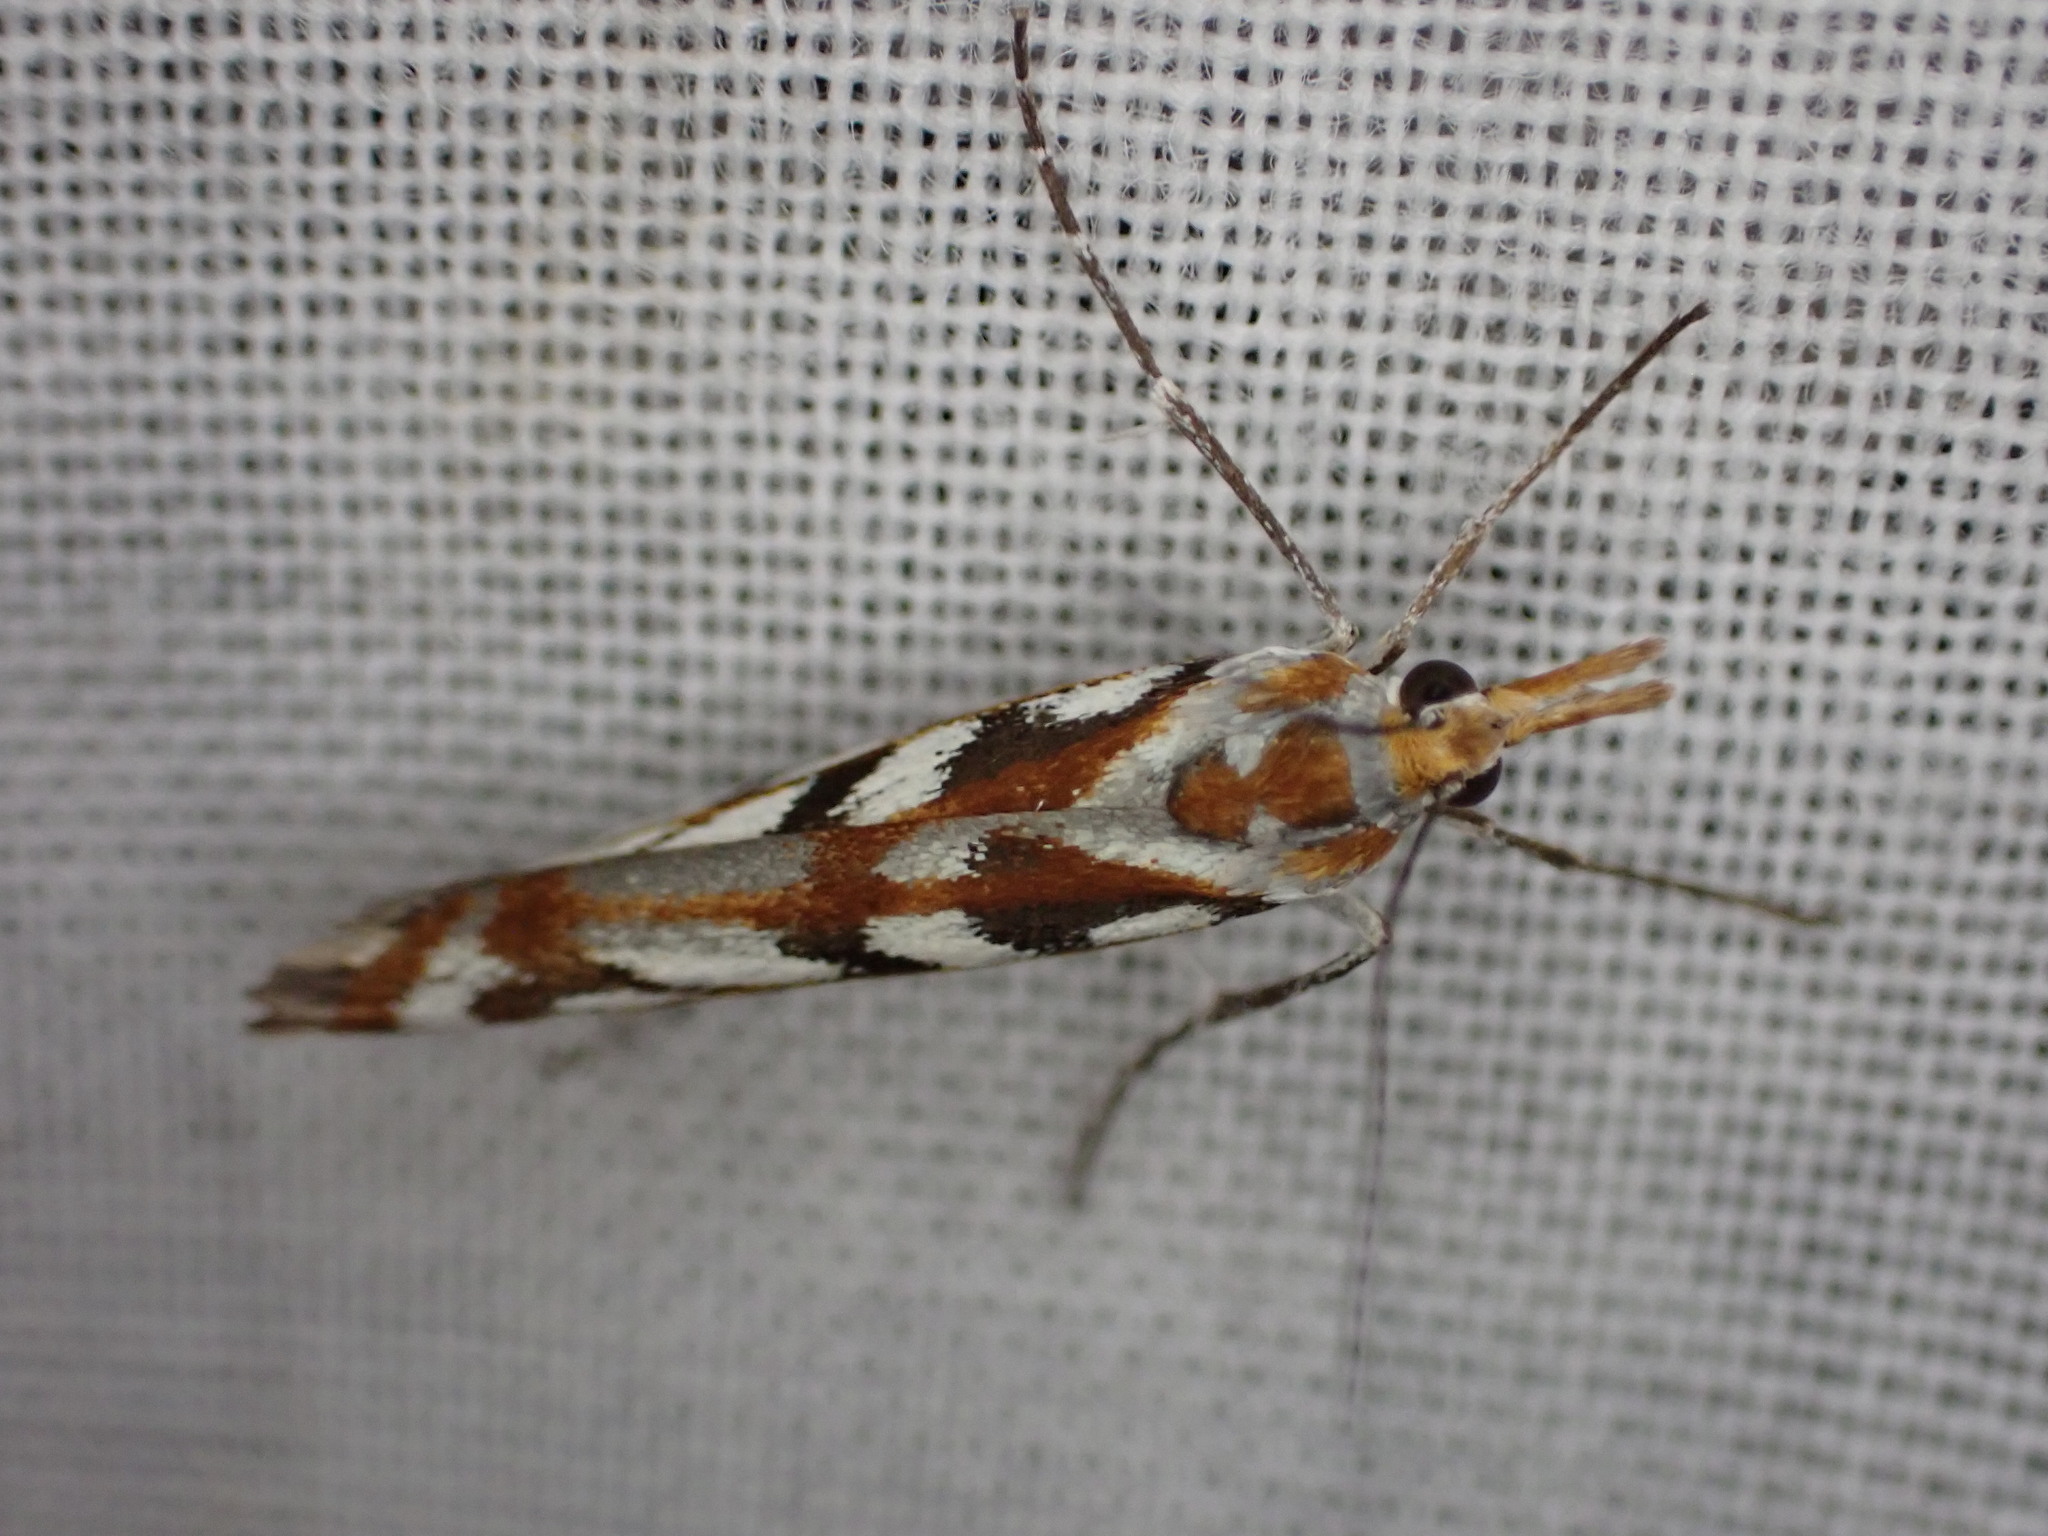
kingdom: Animalia
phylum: Arthropoda
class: Insecta
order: Lepidoptera
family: Crambidae
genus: Orocrambus
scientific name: Orocrambus xanthogrammus
